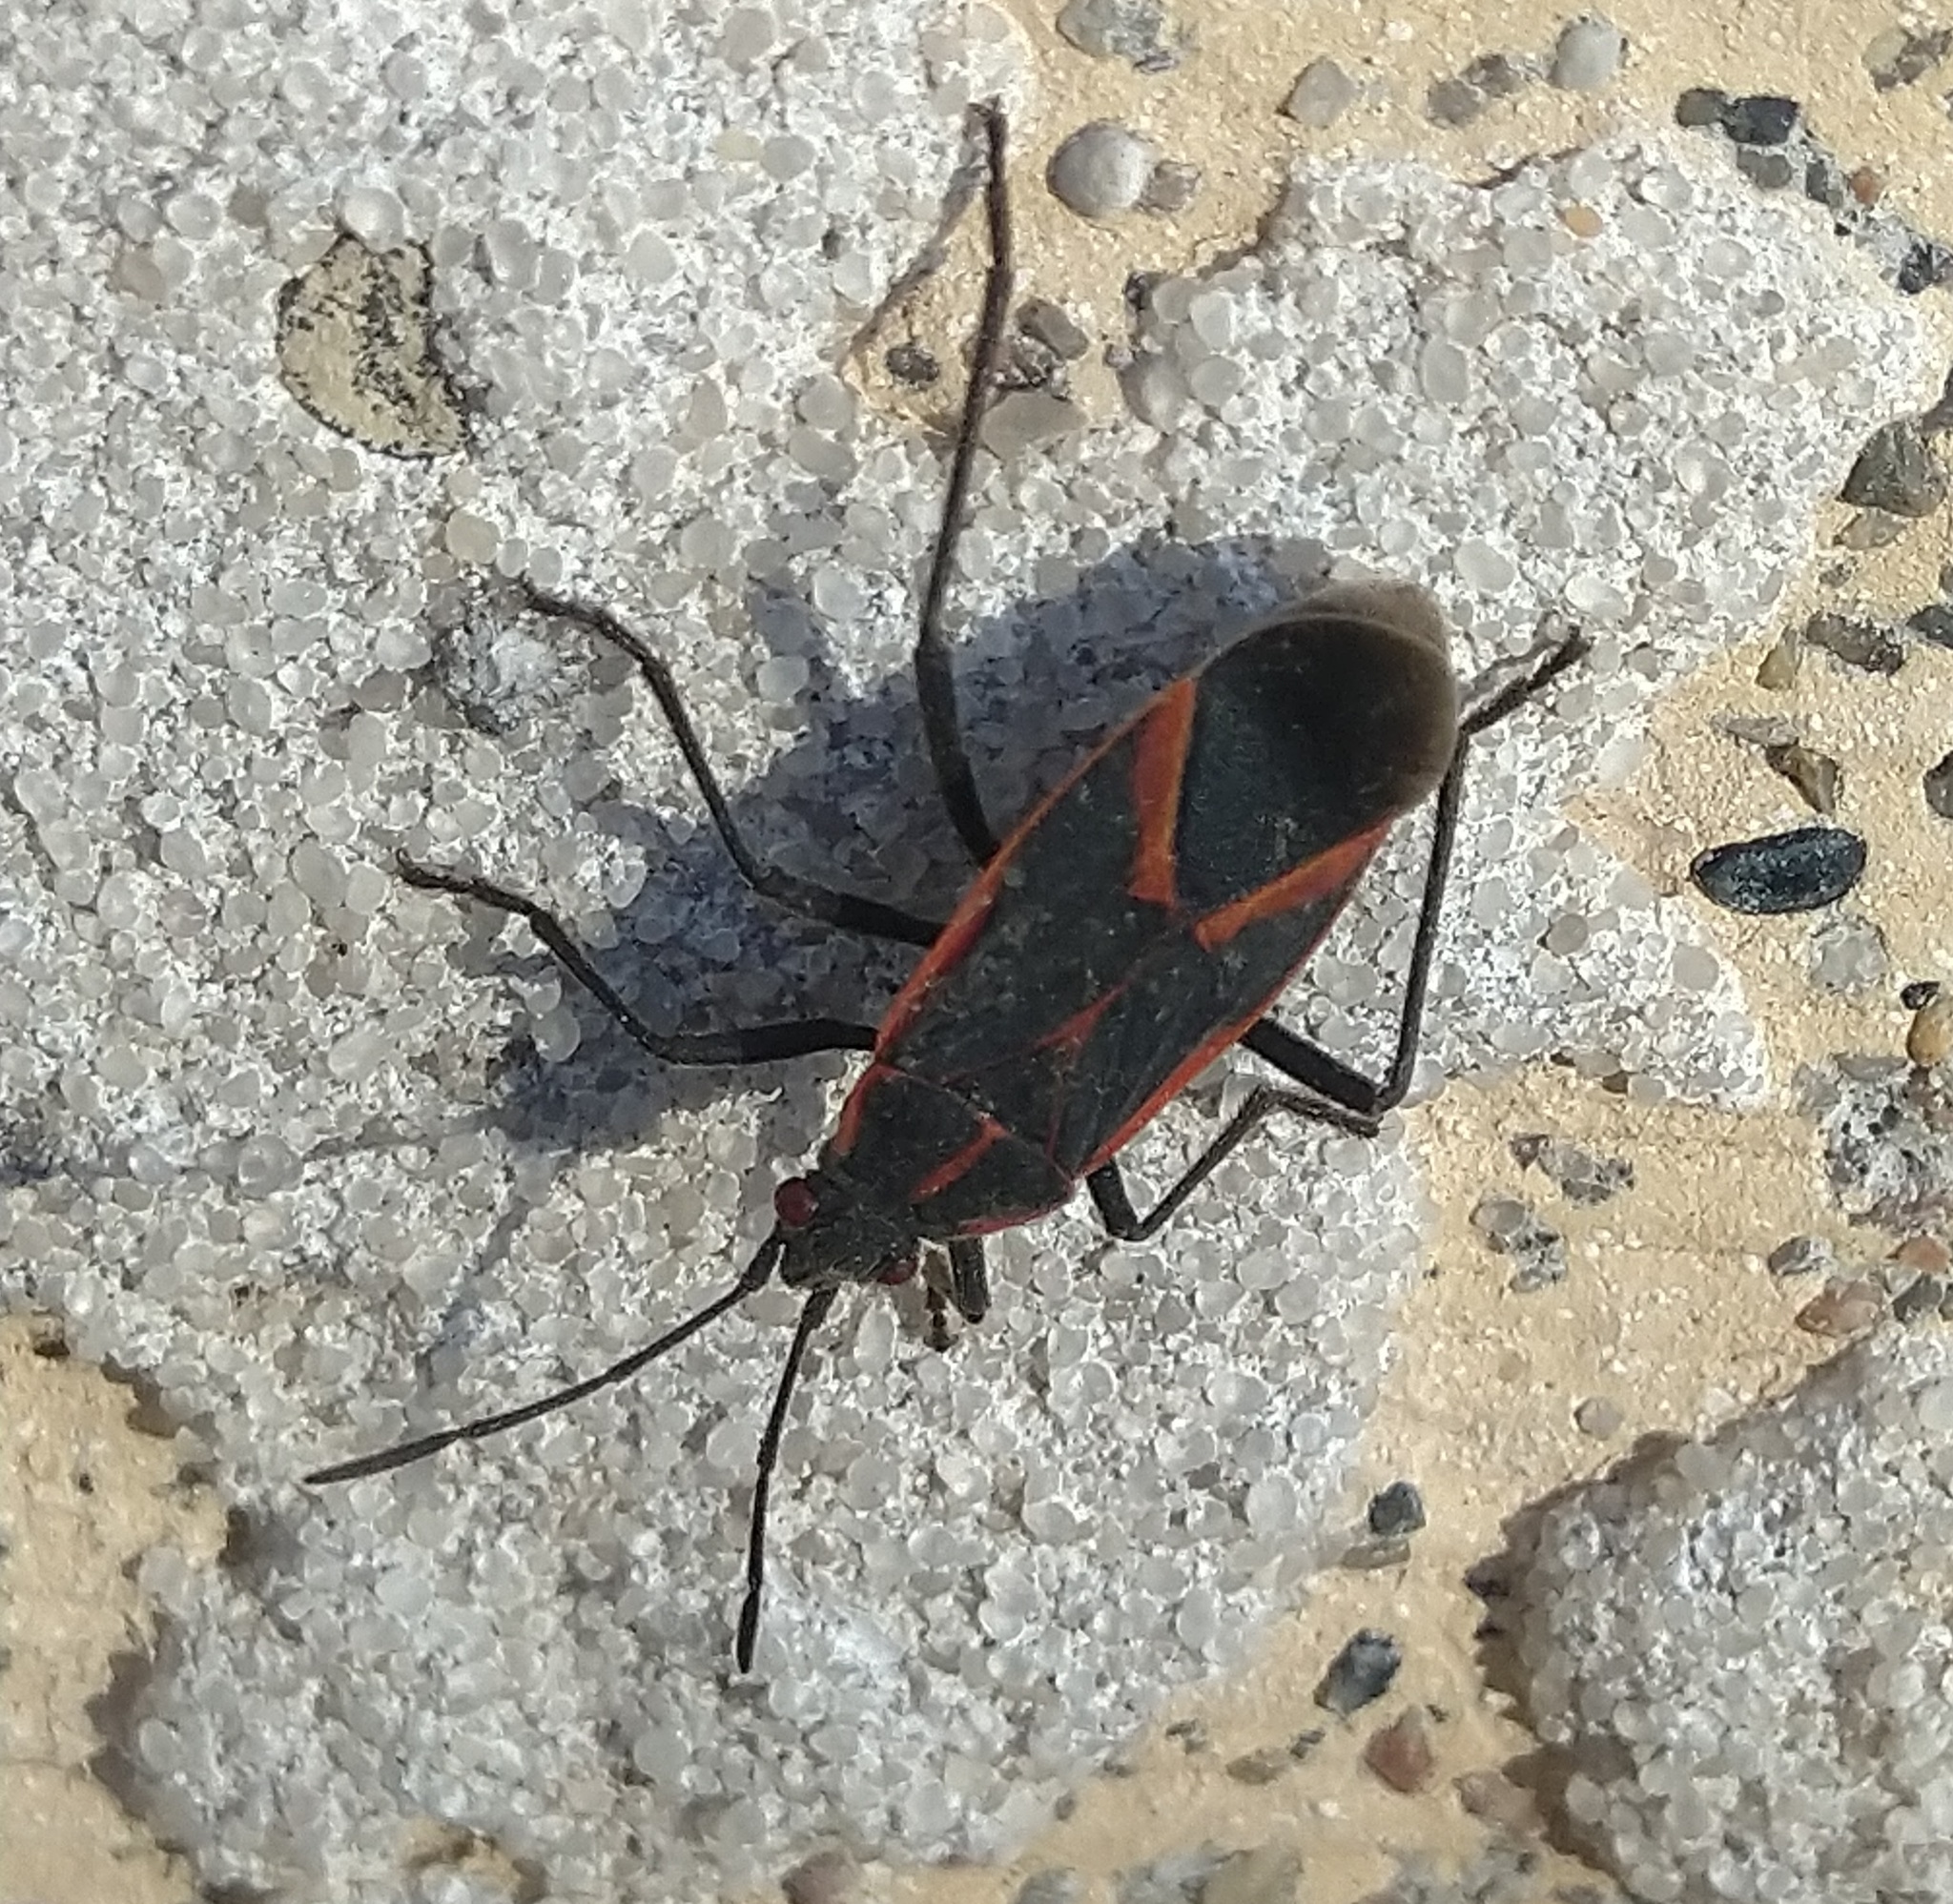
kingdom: Animalia
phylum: Arthropoda
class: Insecta
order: Hemiptera
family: Rhopalidae
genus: Boisea
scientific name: Boisea trivittata
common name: Boxelder bug
